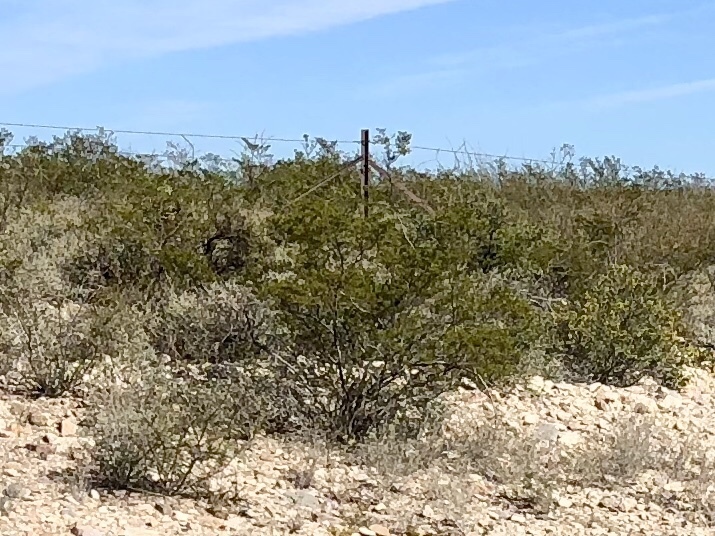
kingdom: Plantae
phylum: Tracheophyta
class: Magnoliopsida
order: Zygophyllales
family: Zygophyllaceae
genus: Larrea
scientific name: Larrea tridentata
